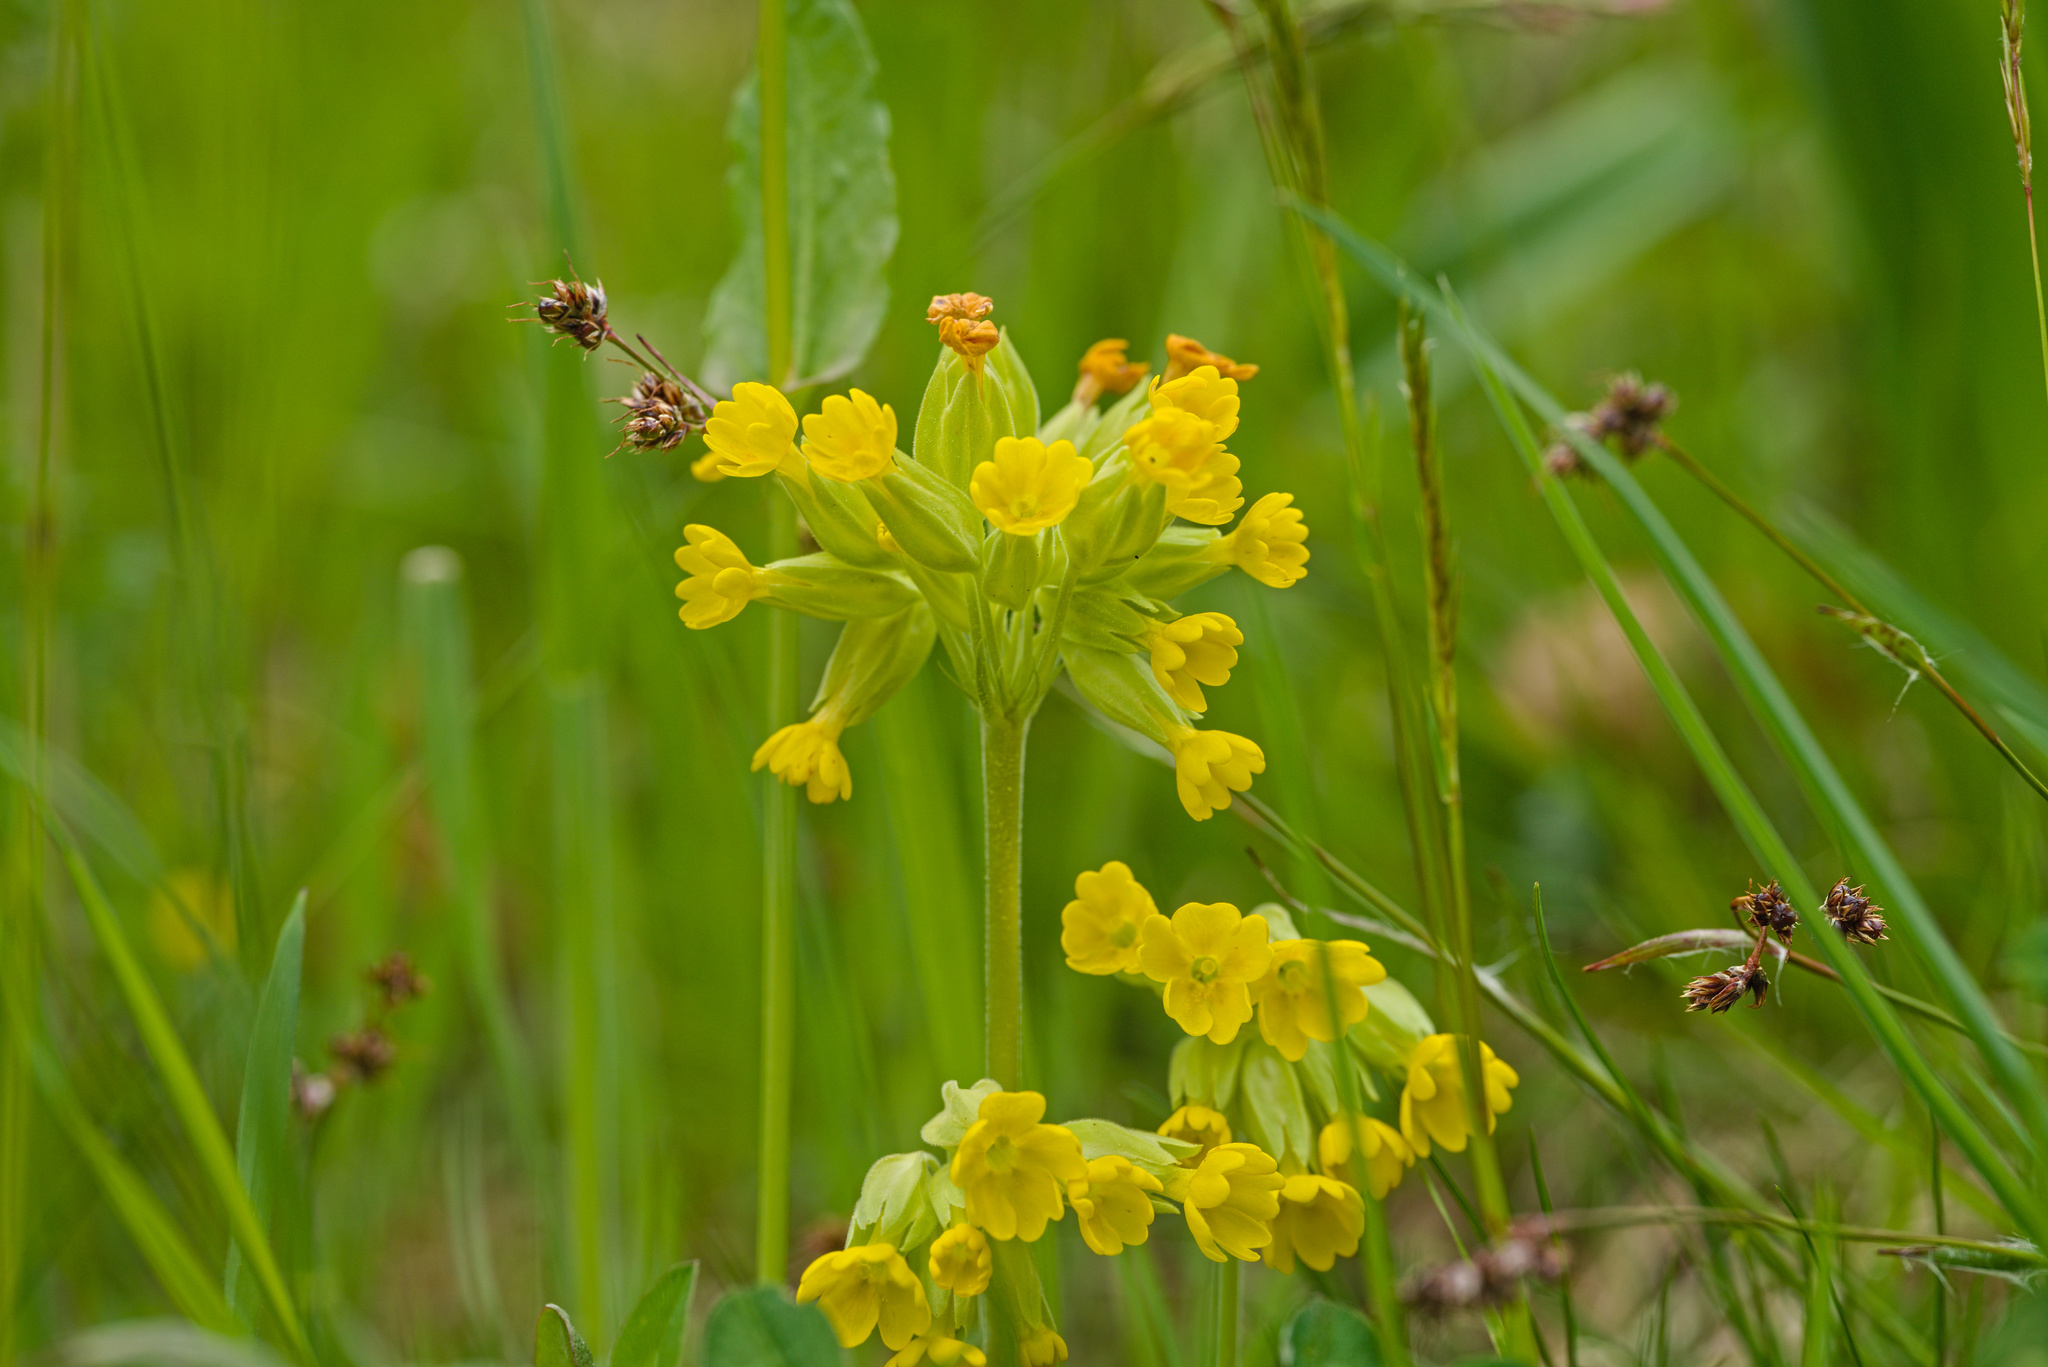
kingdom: Plantae
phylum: Tracheophyta
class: Magnoliopsida
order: Ericales
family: Primulaceae
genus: Primula
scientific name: Primula veris
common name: Cowslip
